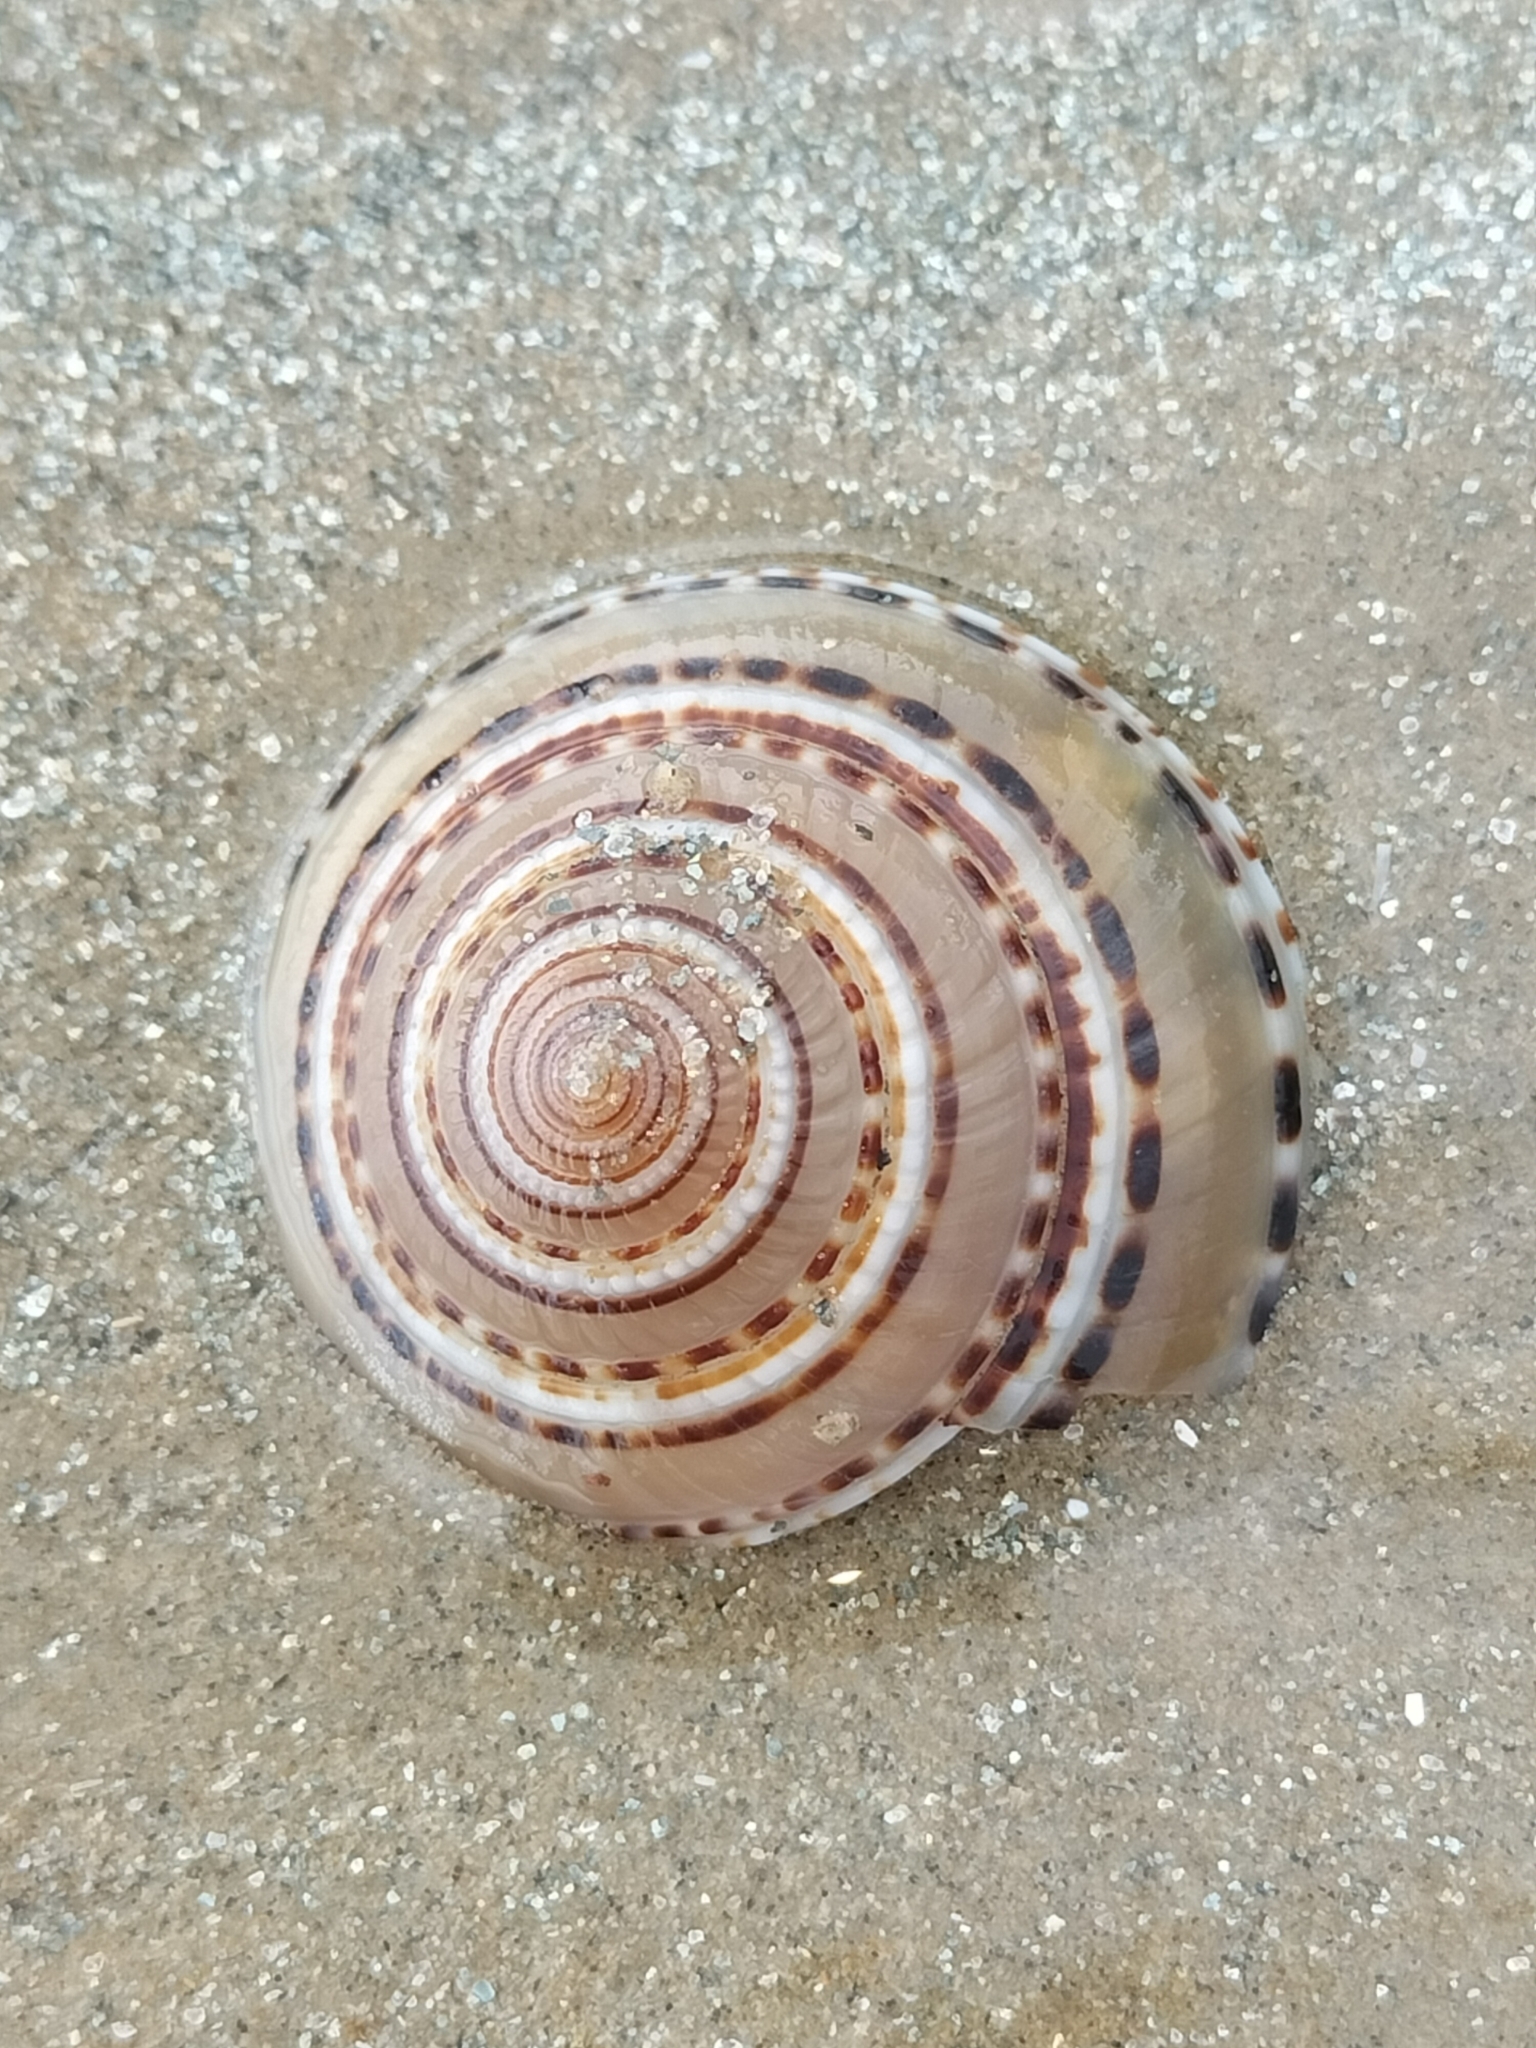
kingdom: Animalia
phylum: Mollusca
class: Gastropoda
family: Architectonicidae
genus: Architectonica
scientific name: Architectonica perspectiva
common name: European sundial snail
